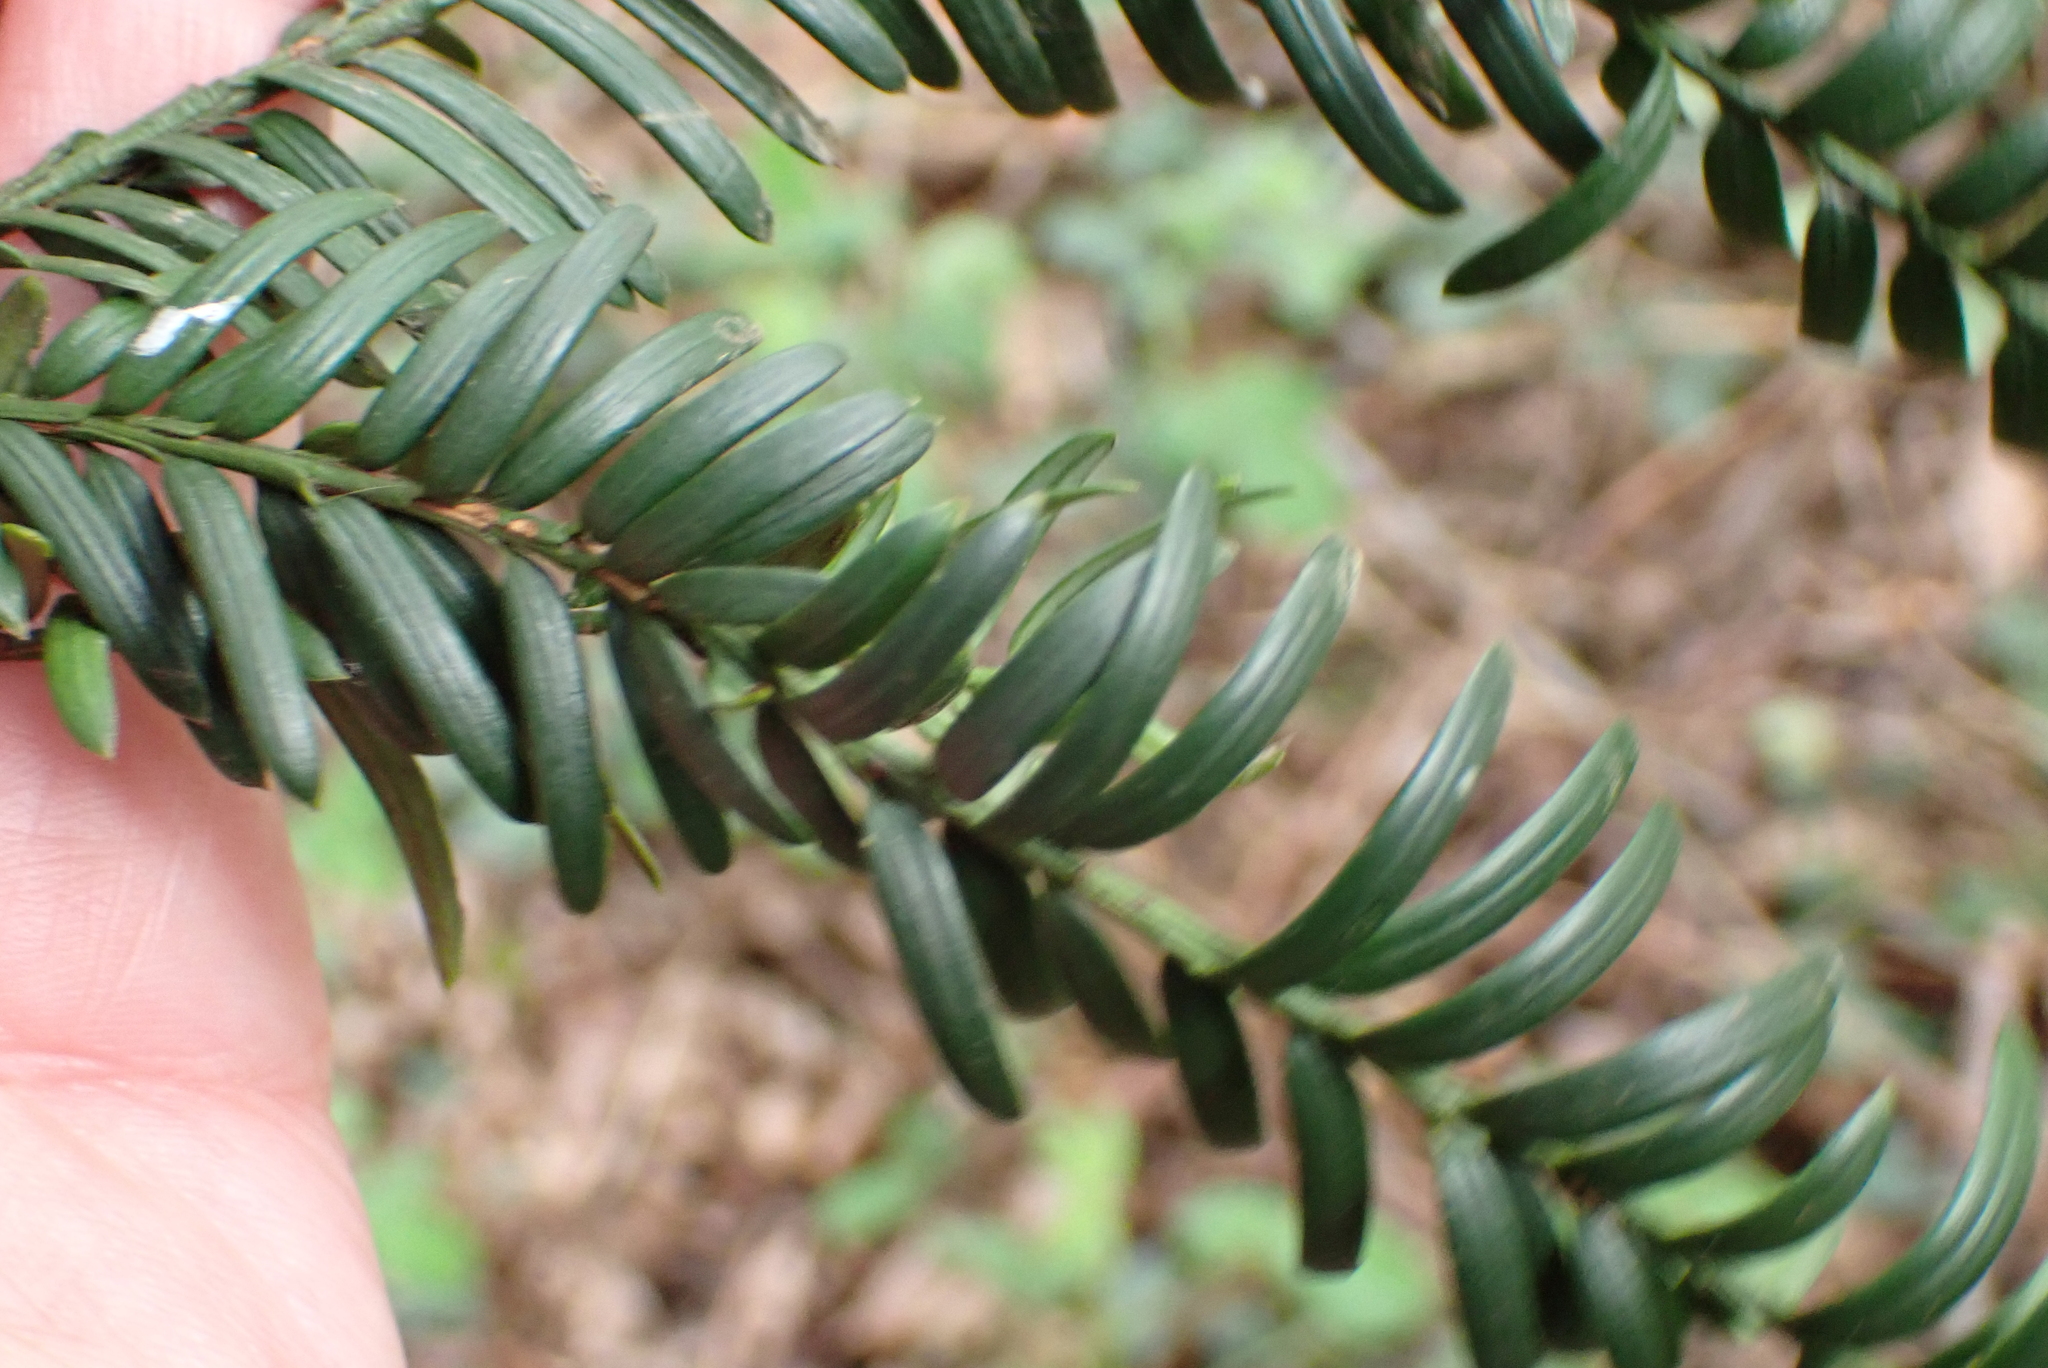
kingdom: Plantae
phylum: Tracheophyta
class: Pinopsida
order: Pinales
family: Taxaceae
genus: Taxus
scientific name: Taxus baccata
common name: Yew
